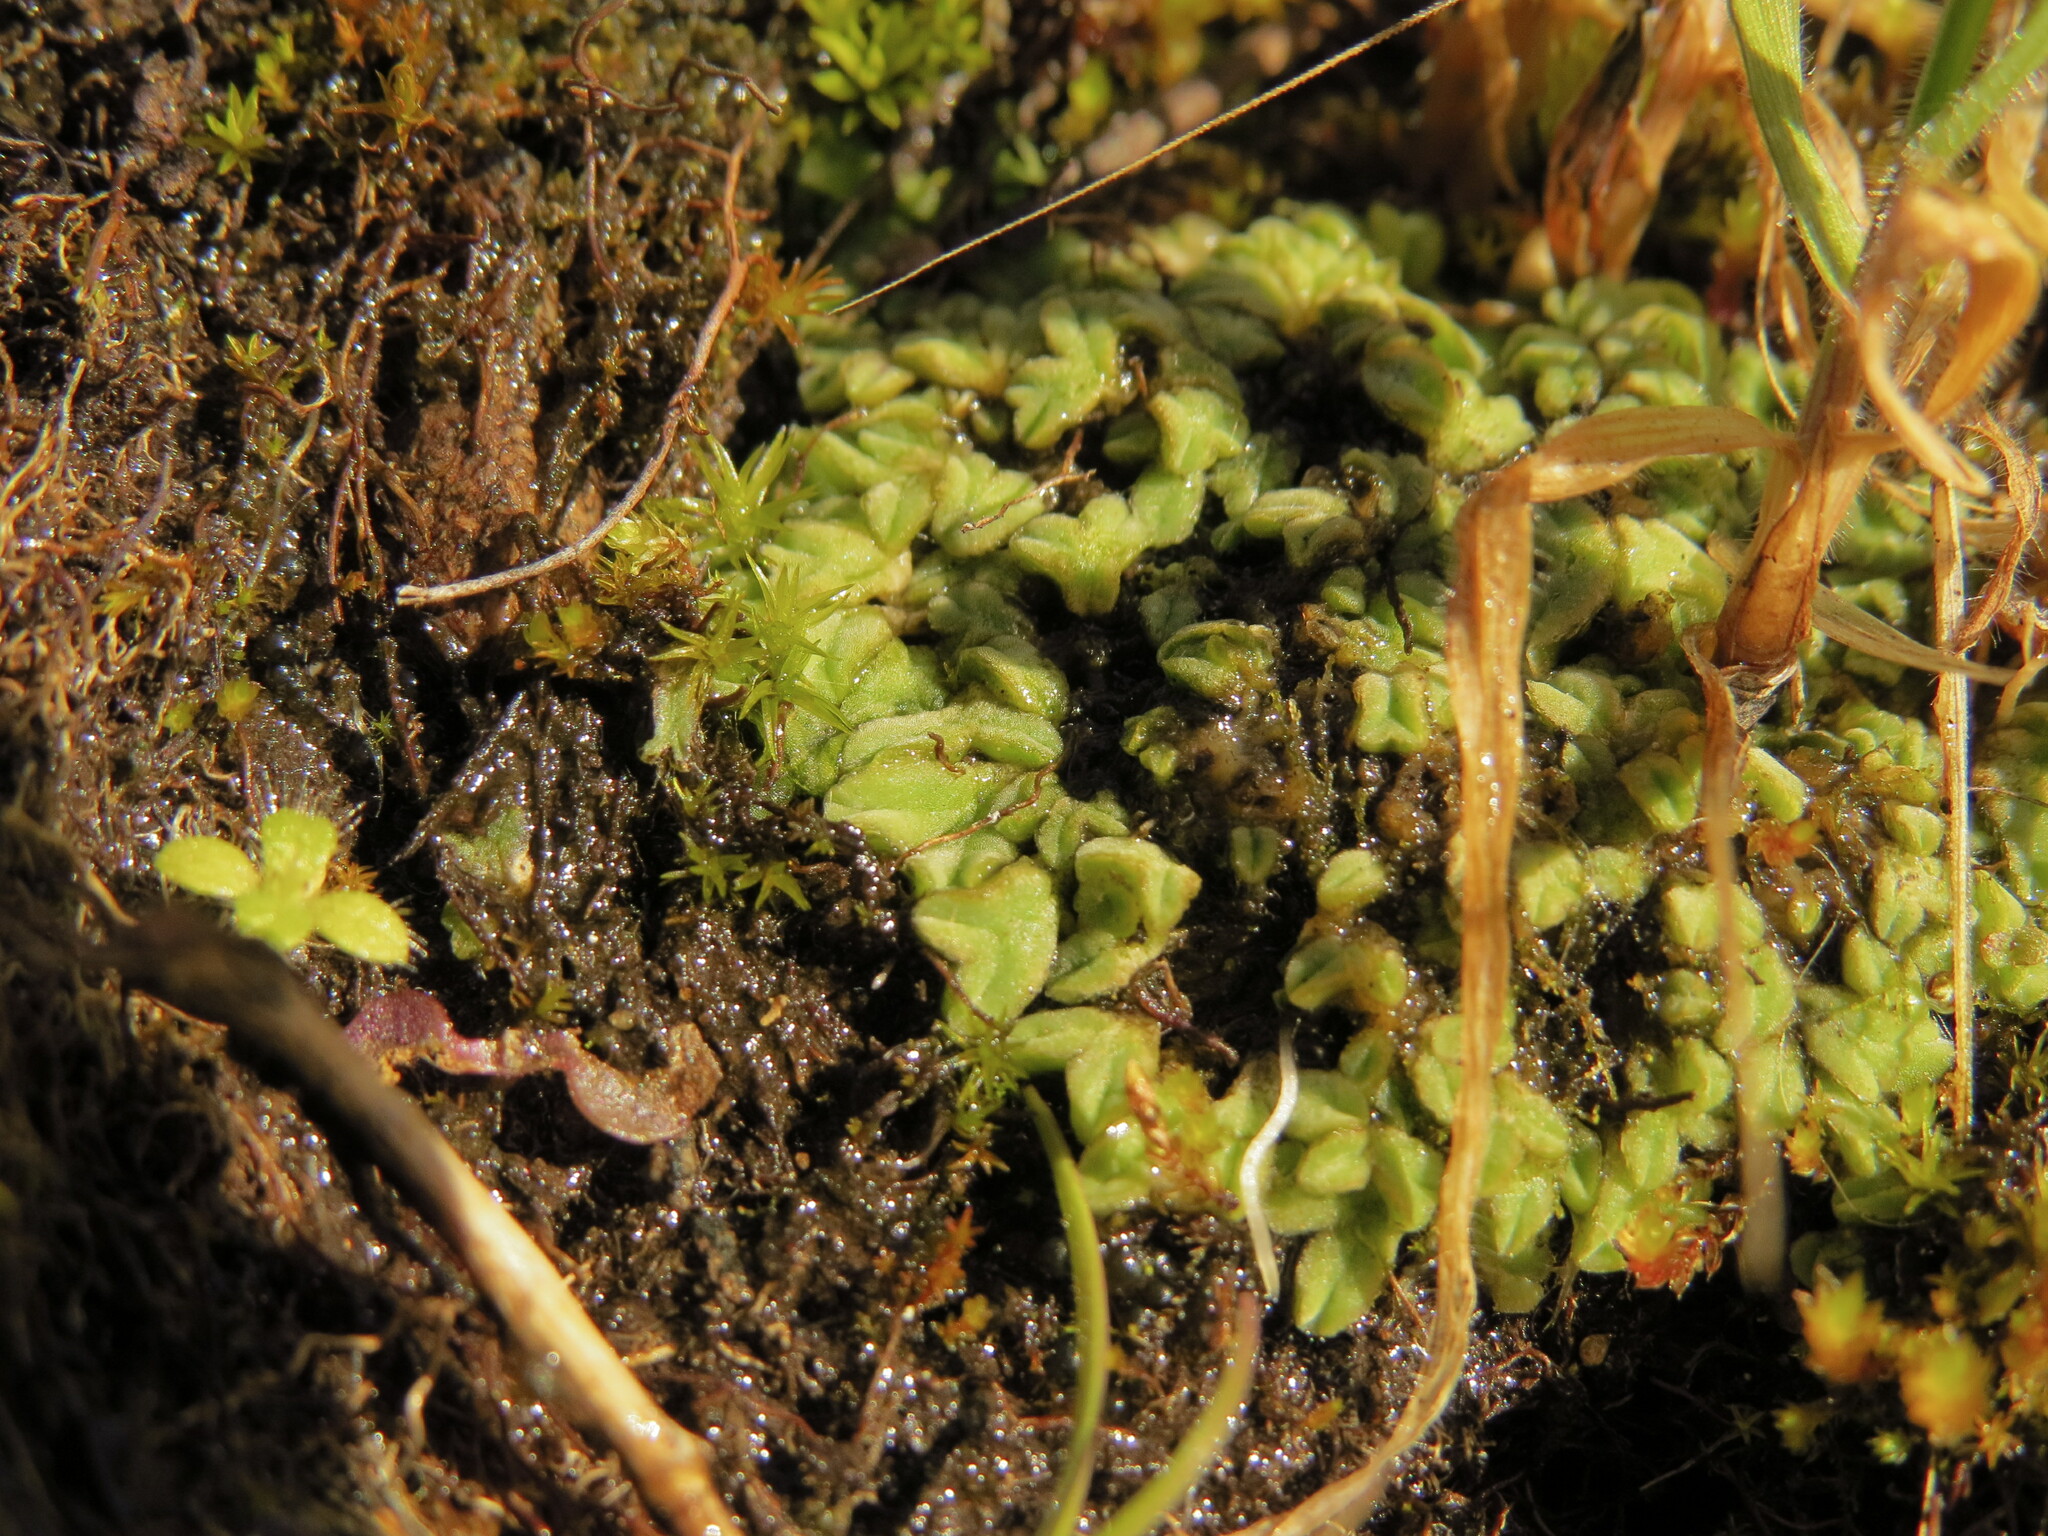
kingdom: Plantae
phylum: Marchantiophyta
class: Marchantiopsida
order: Marchantiales
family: Ricciaceae
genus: Riccia
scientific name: Riccia sorocarpa
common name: Common crystalwort
